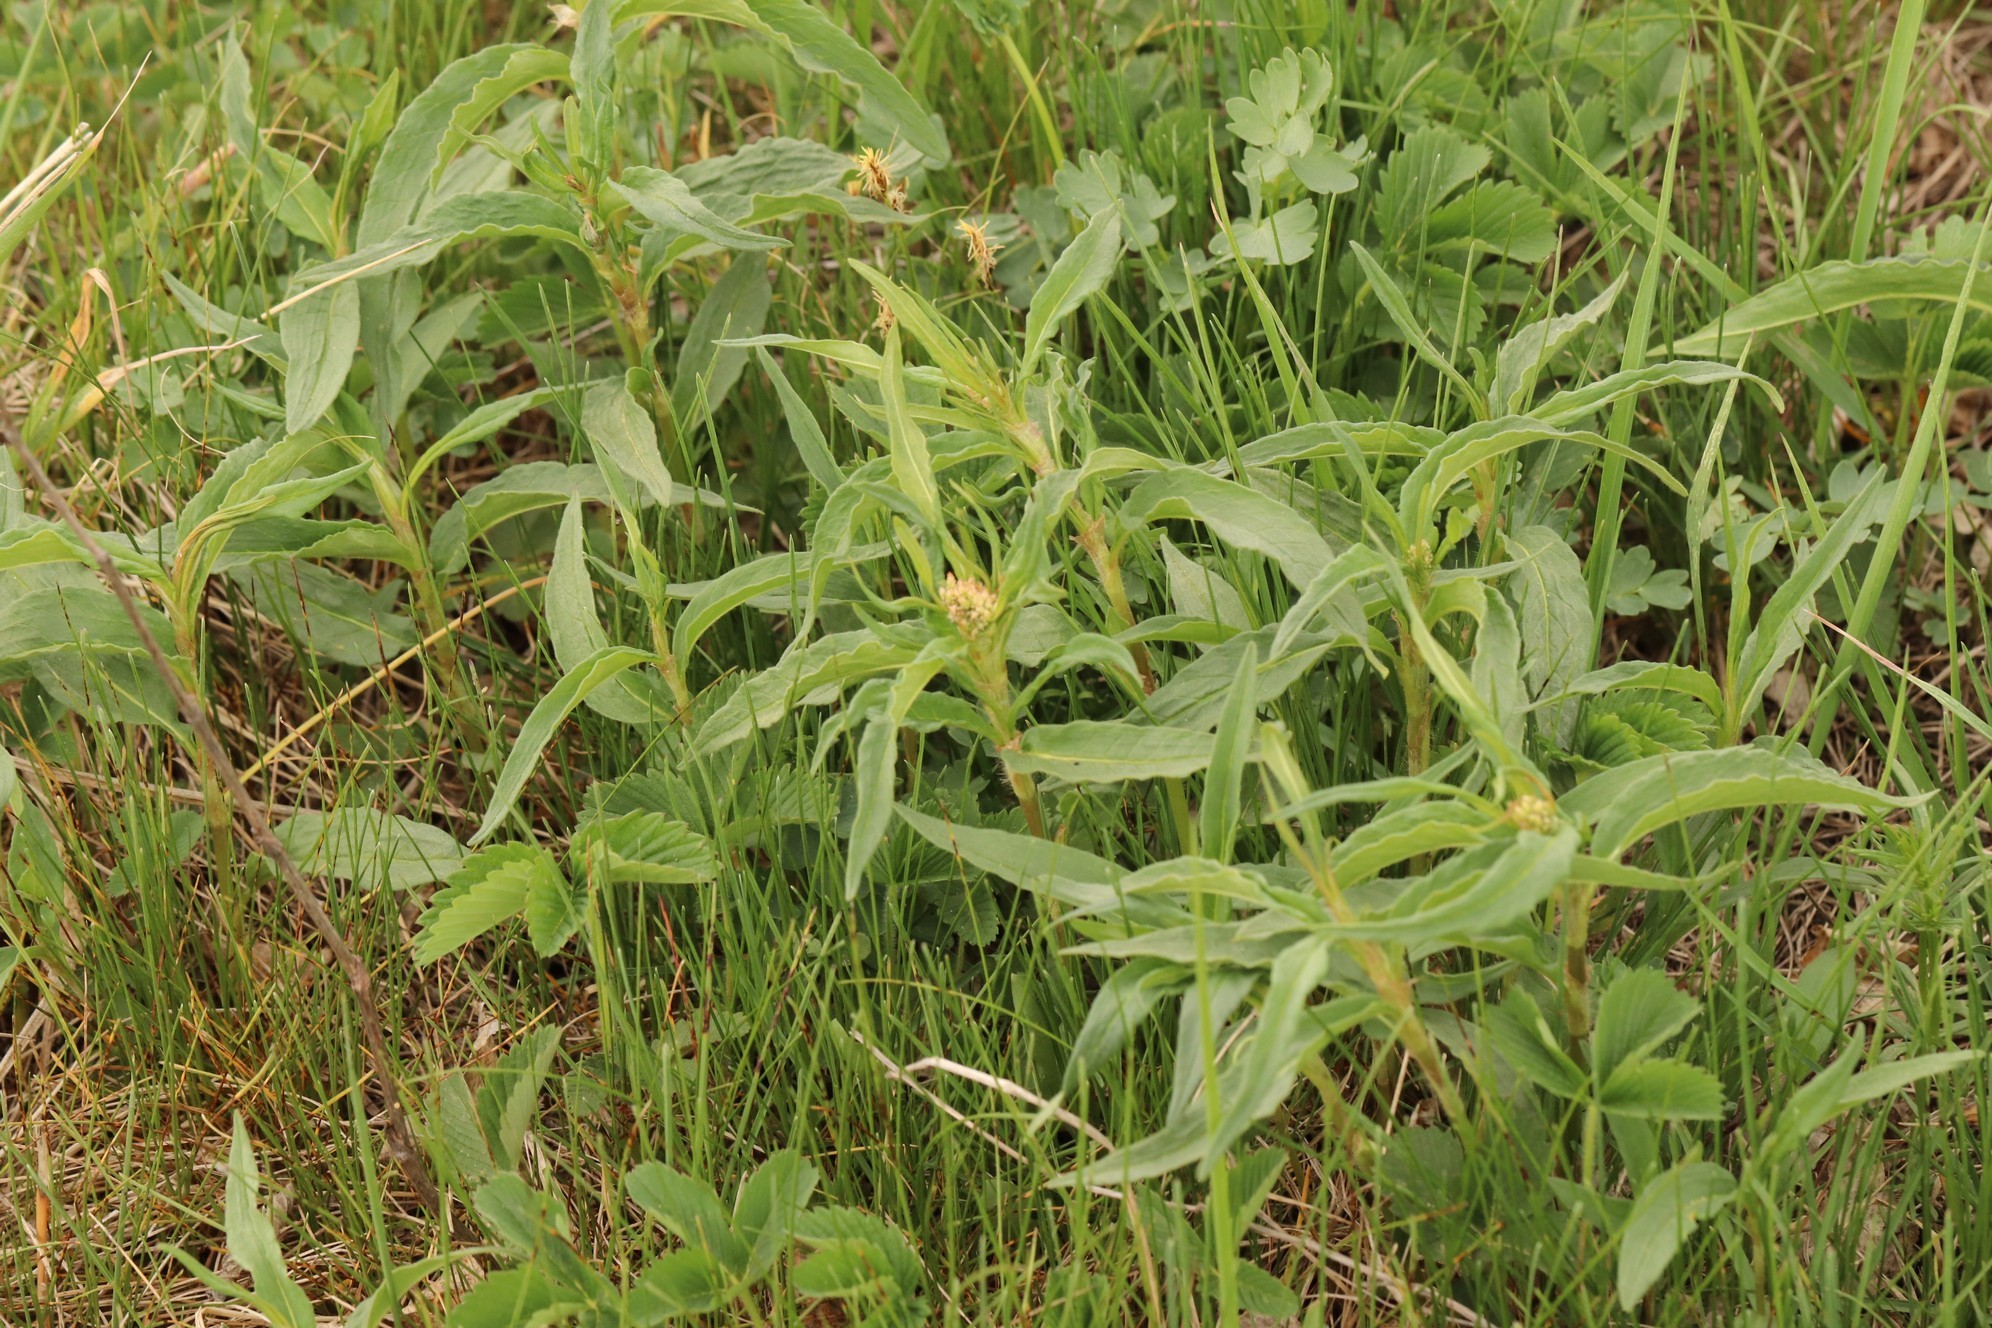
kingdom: Plantae
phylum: Tracheophyta
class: Magnoliopsida
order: Caryophyllales
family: Polygonaceae
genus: Koenigia
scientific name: Koenigia alpina
